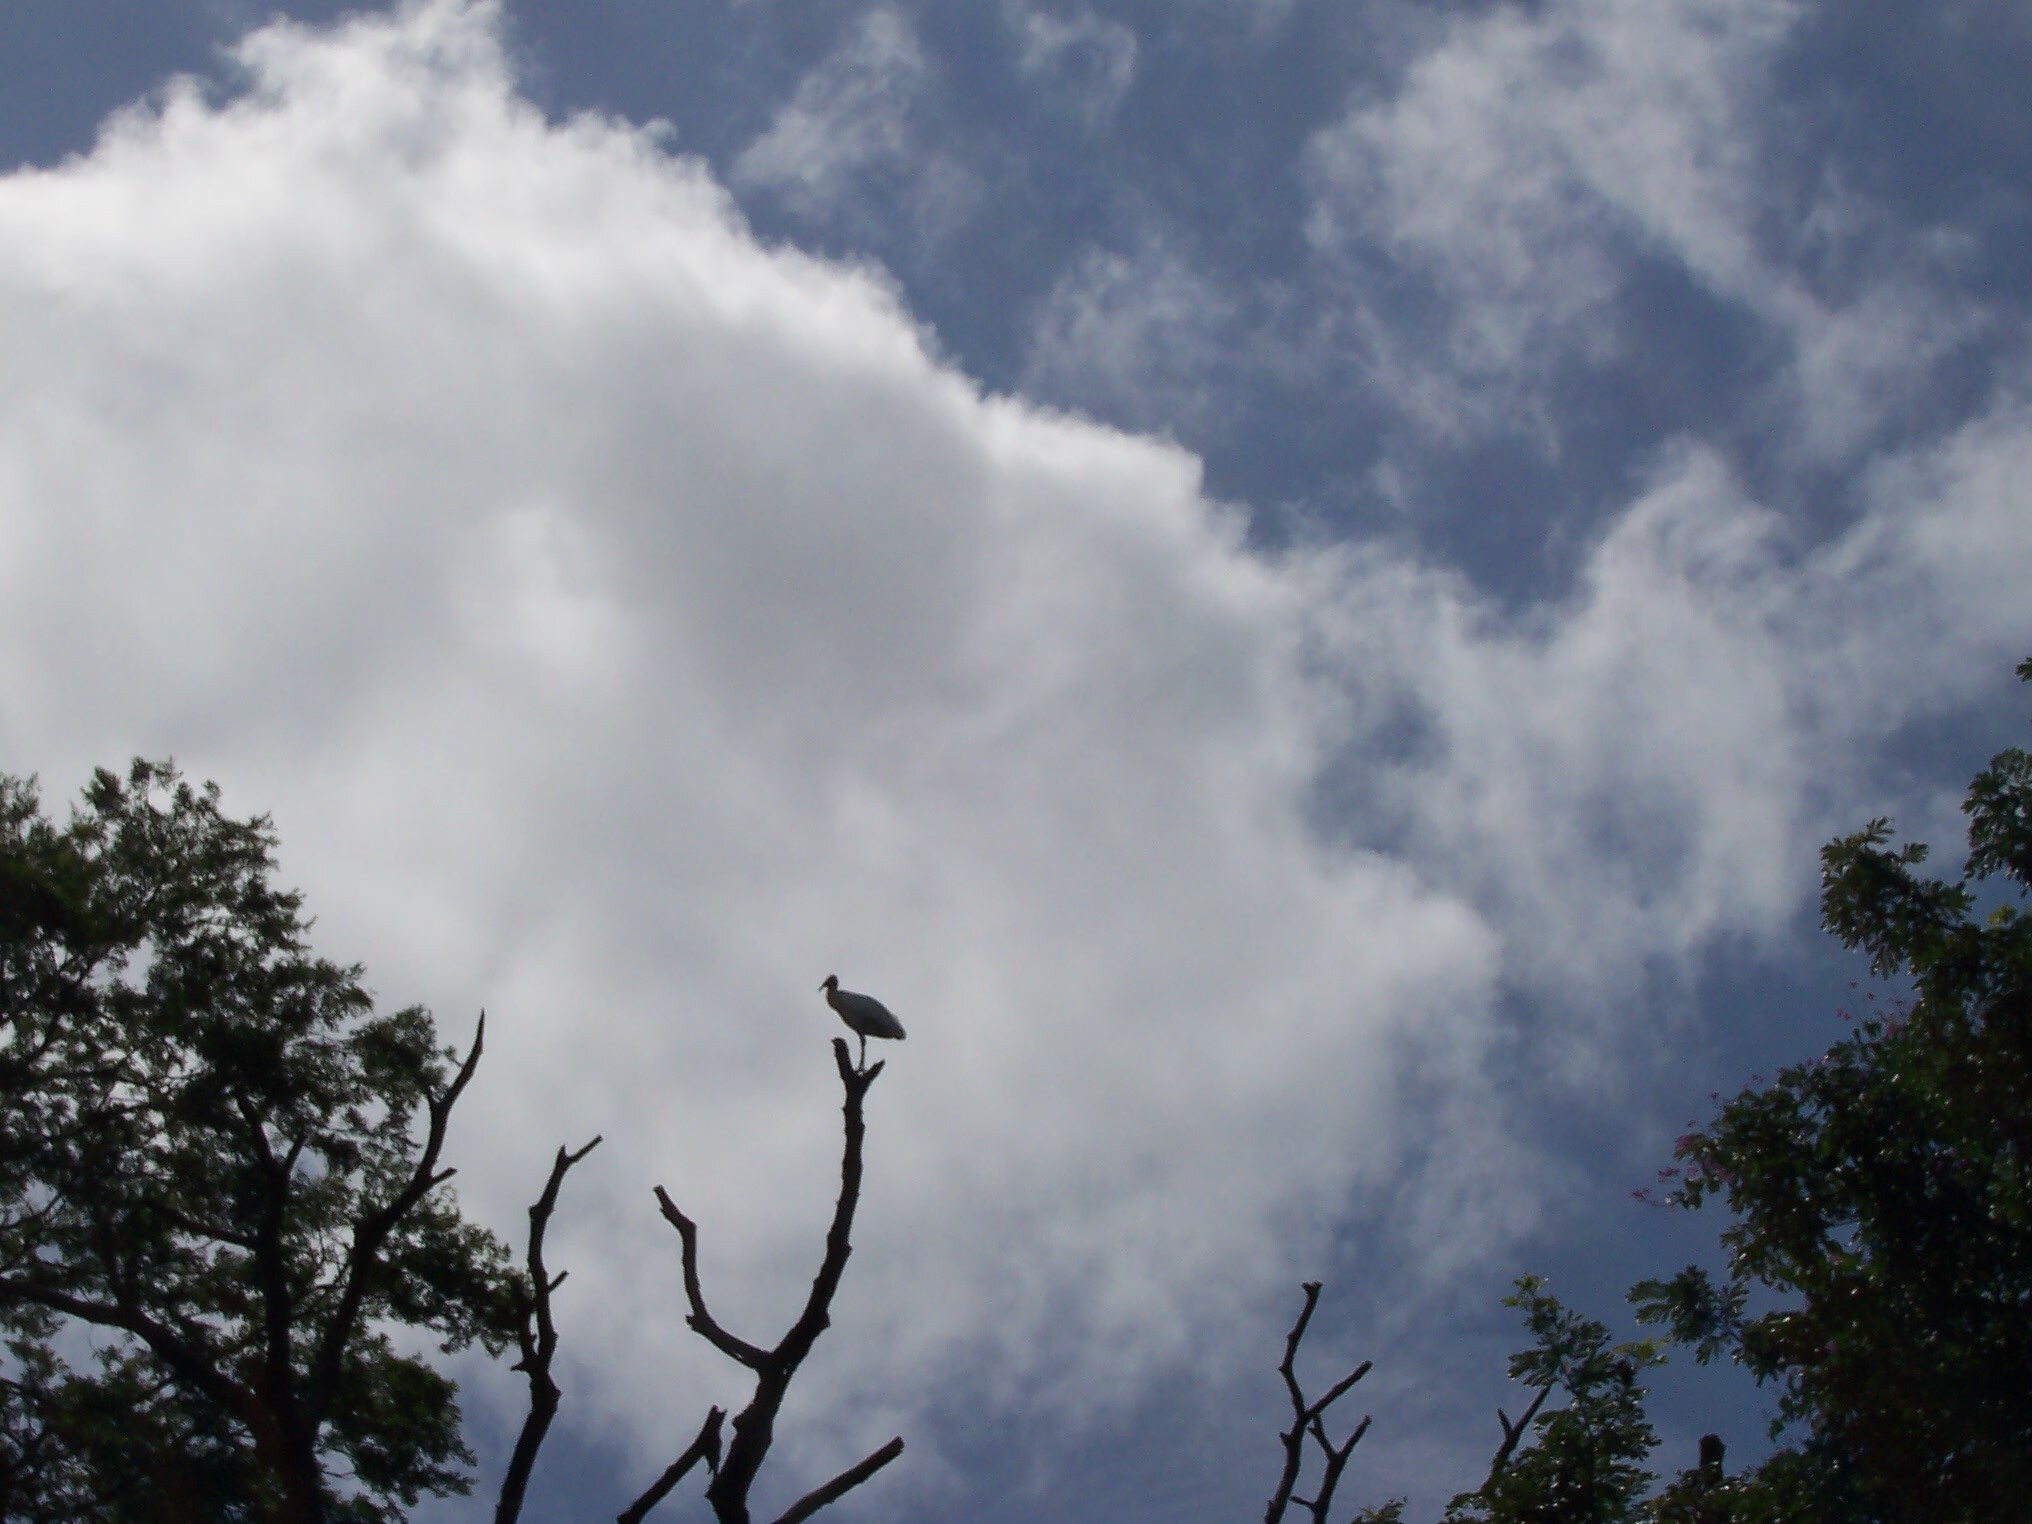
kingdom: Animalia
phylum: Chordata
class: Aves
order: Ciconiiformes
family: Ciconiidae
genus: Mycteria
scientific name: Mycteria americana
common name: Wood stork
